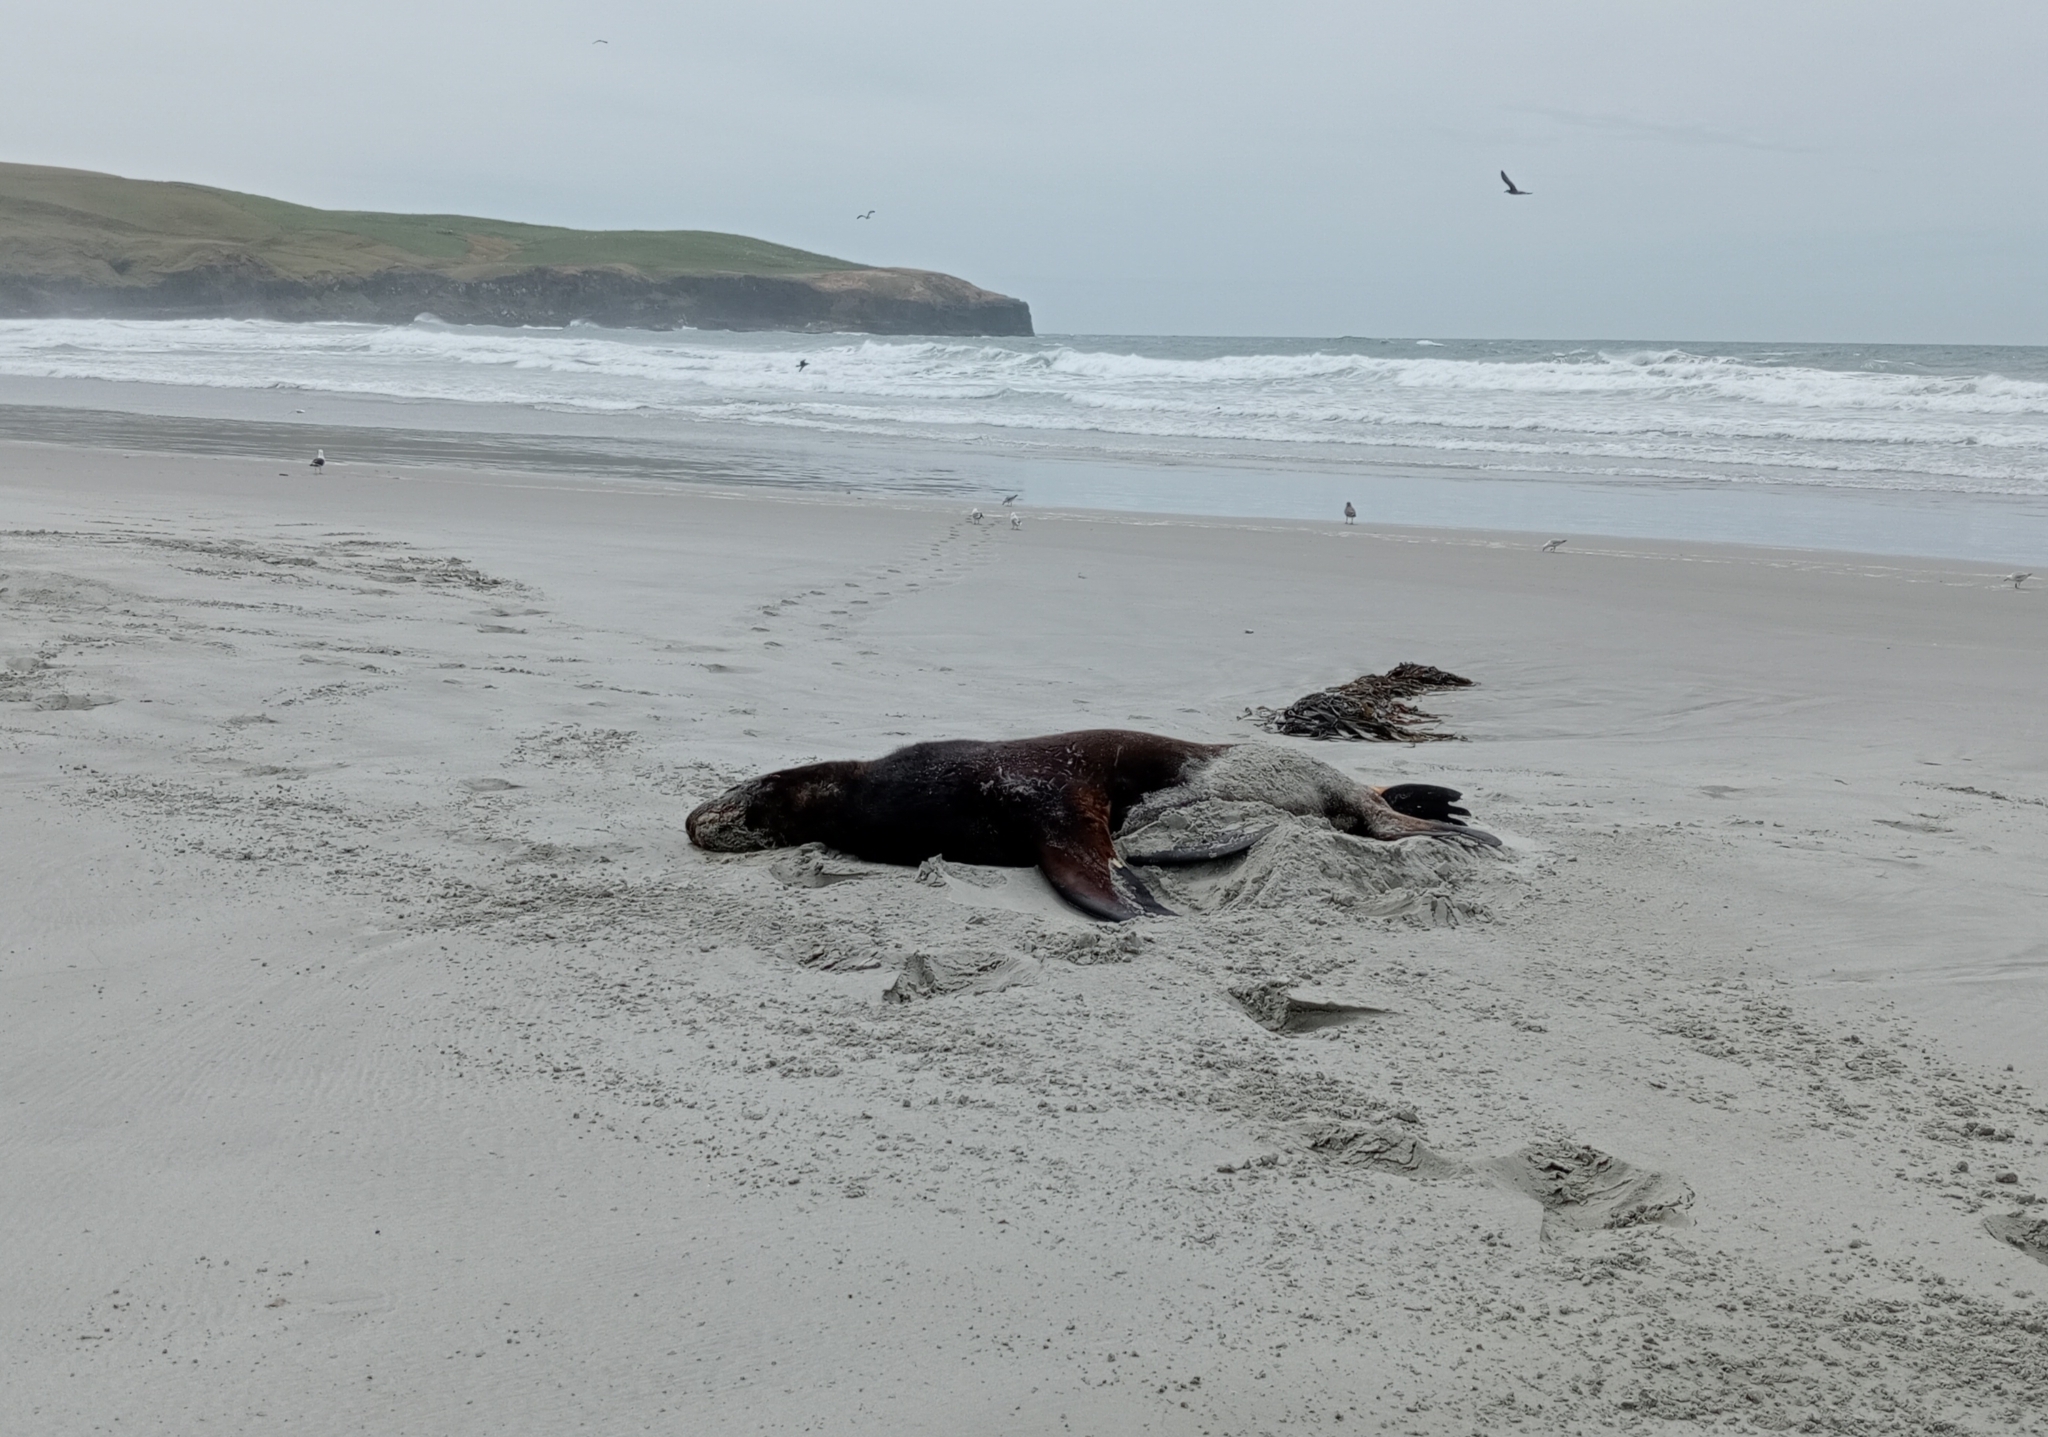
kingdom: Animalia
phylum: Chordata
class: Mammalia
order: Carnivora
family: Otariidae
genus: Phocarctos
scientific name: Phocarctos hookeri
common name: New zealand sea lion
